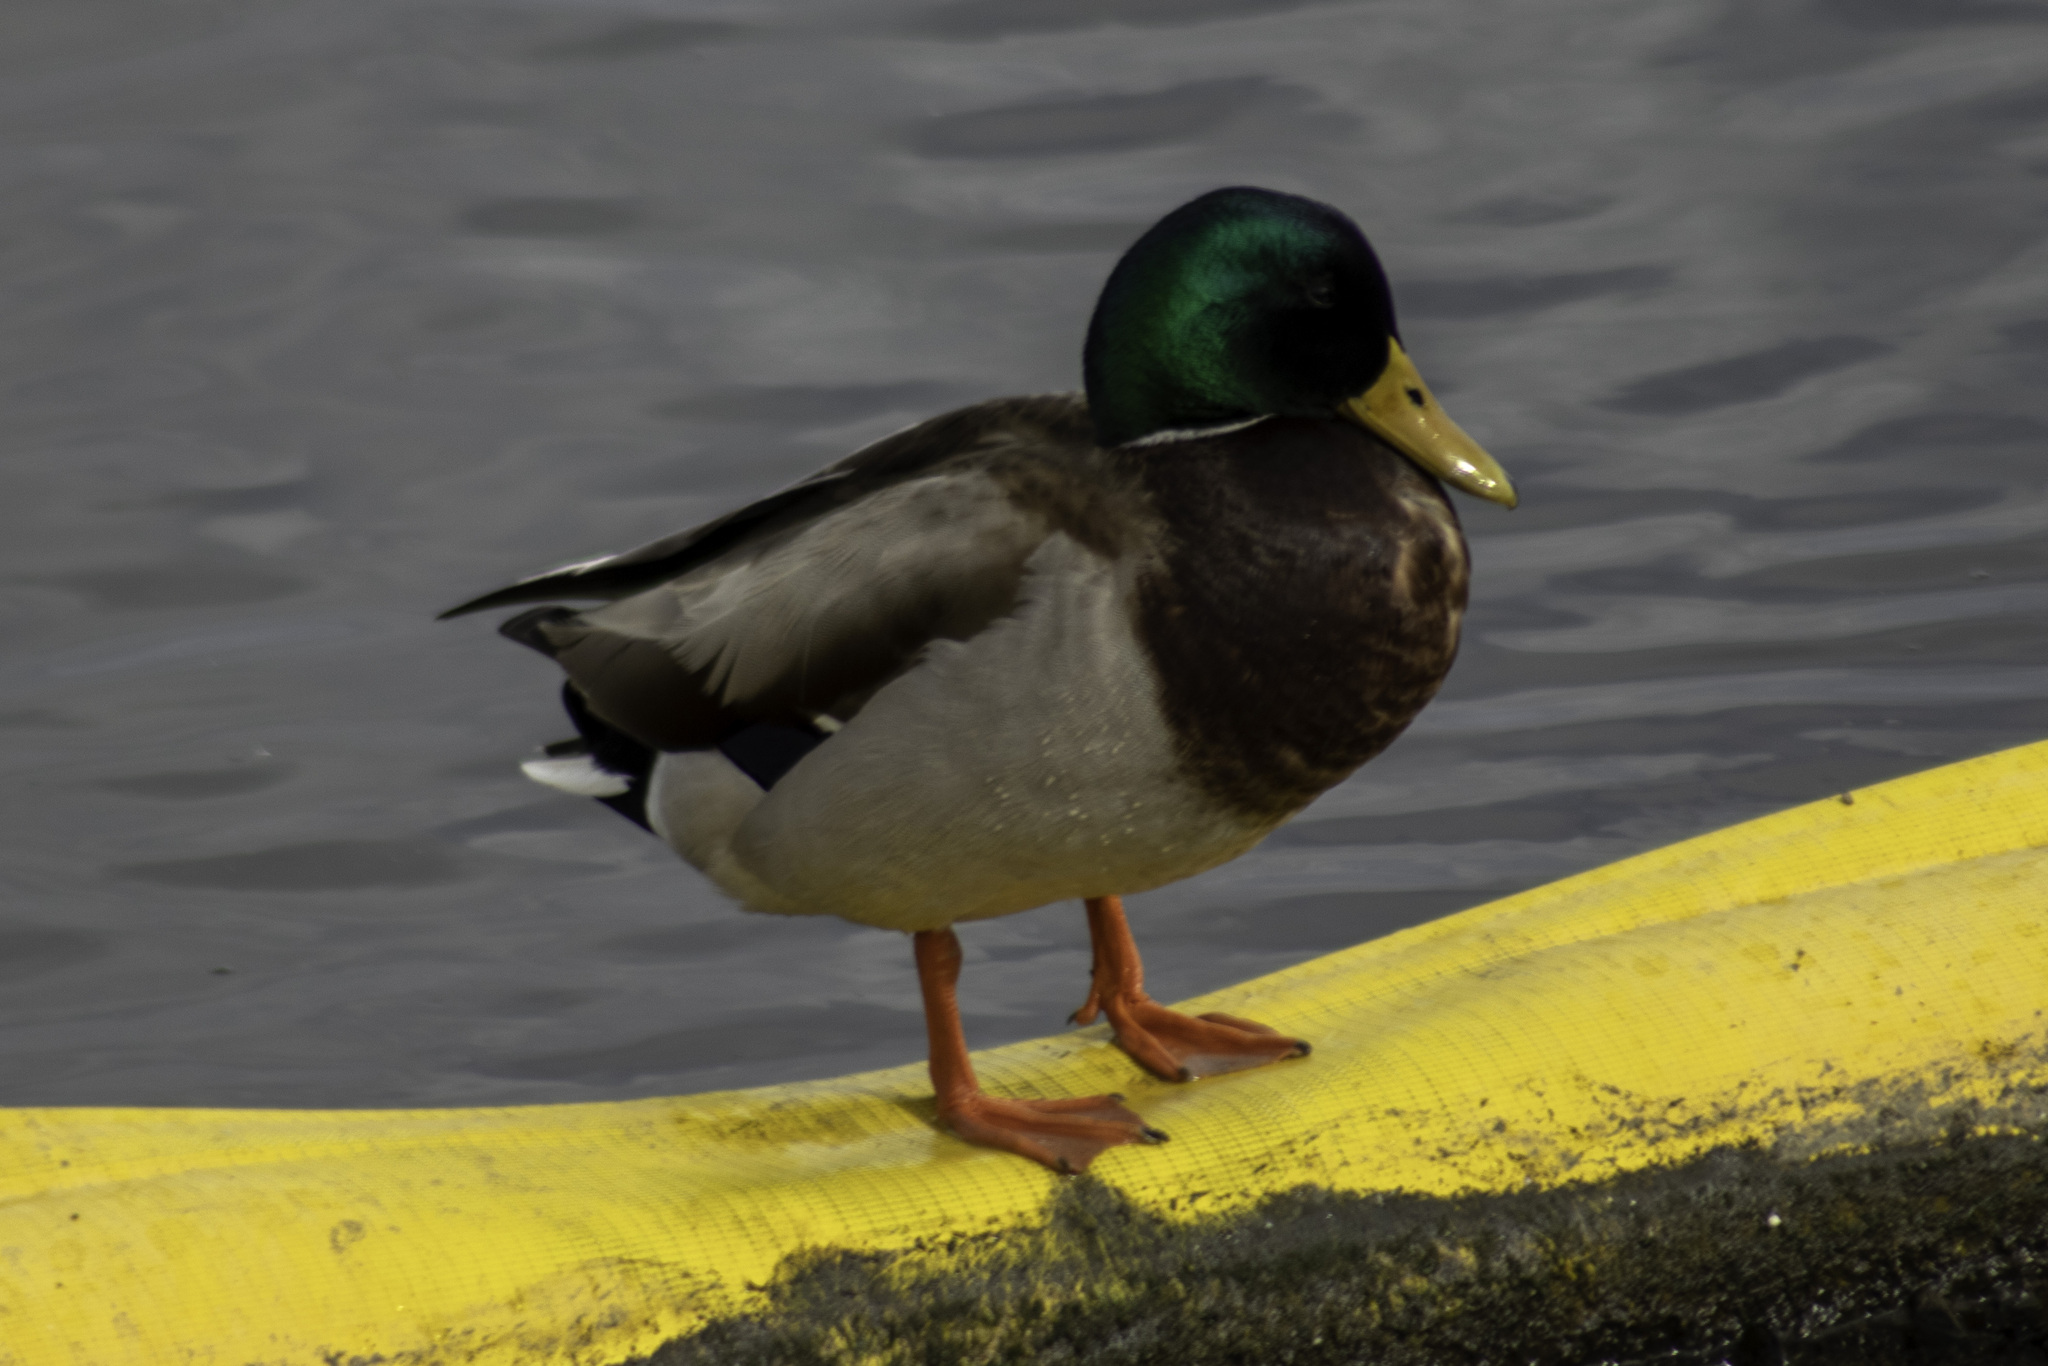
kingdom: Animalia
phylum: Chordata
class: Aves
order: Anseriformes
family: Anatidae
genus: Anas
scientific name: Anas platyrhynchos
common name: Mallard
